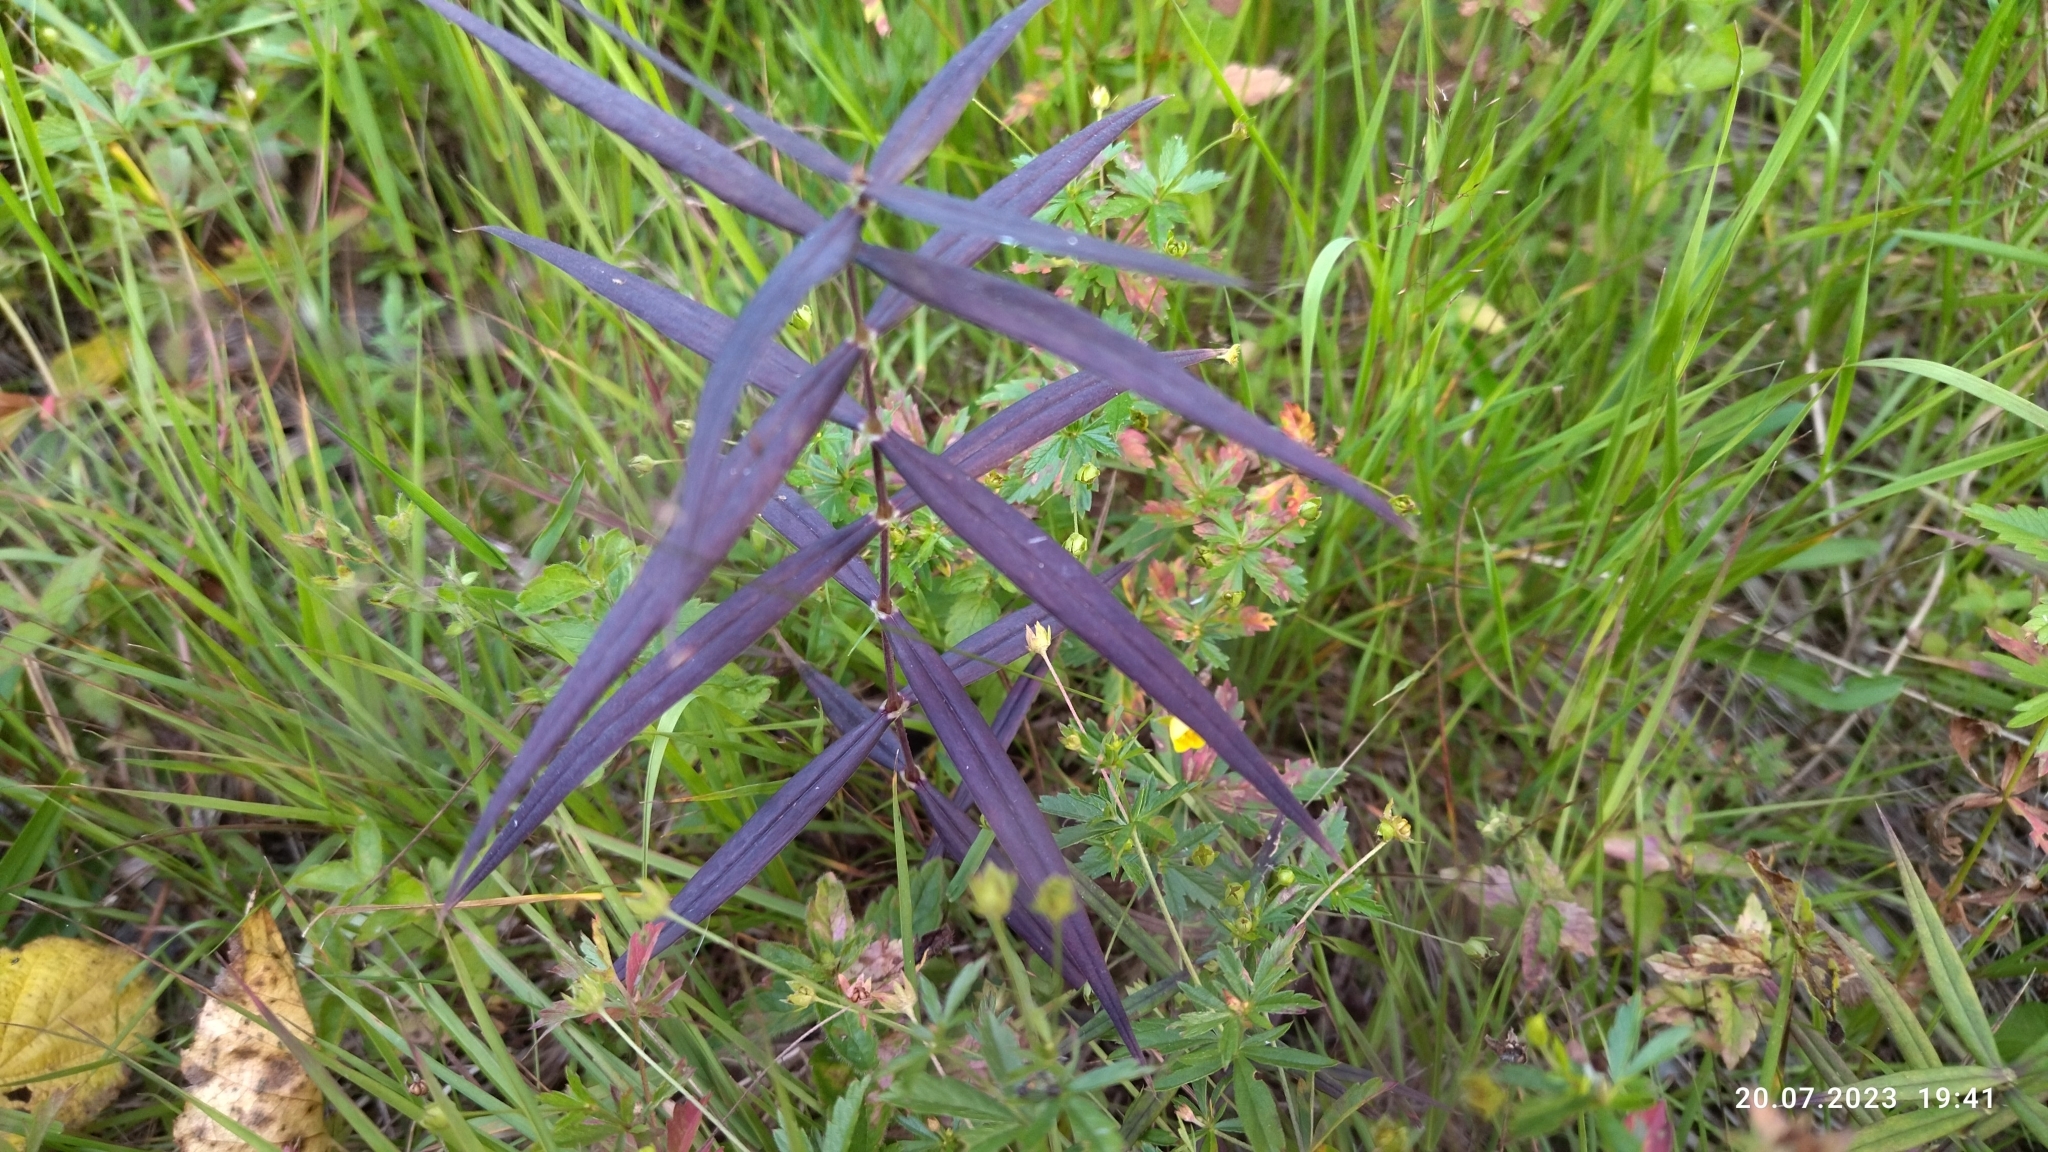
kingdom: Plantae
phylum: Tracheophyta
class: Magnoliopsida
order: Caryophyllales
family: Caryophyllaceae
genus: Rabelera
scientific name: Rabelera holostea
